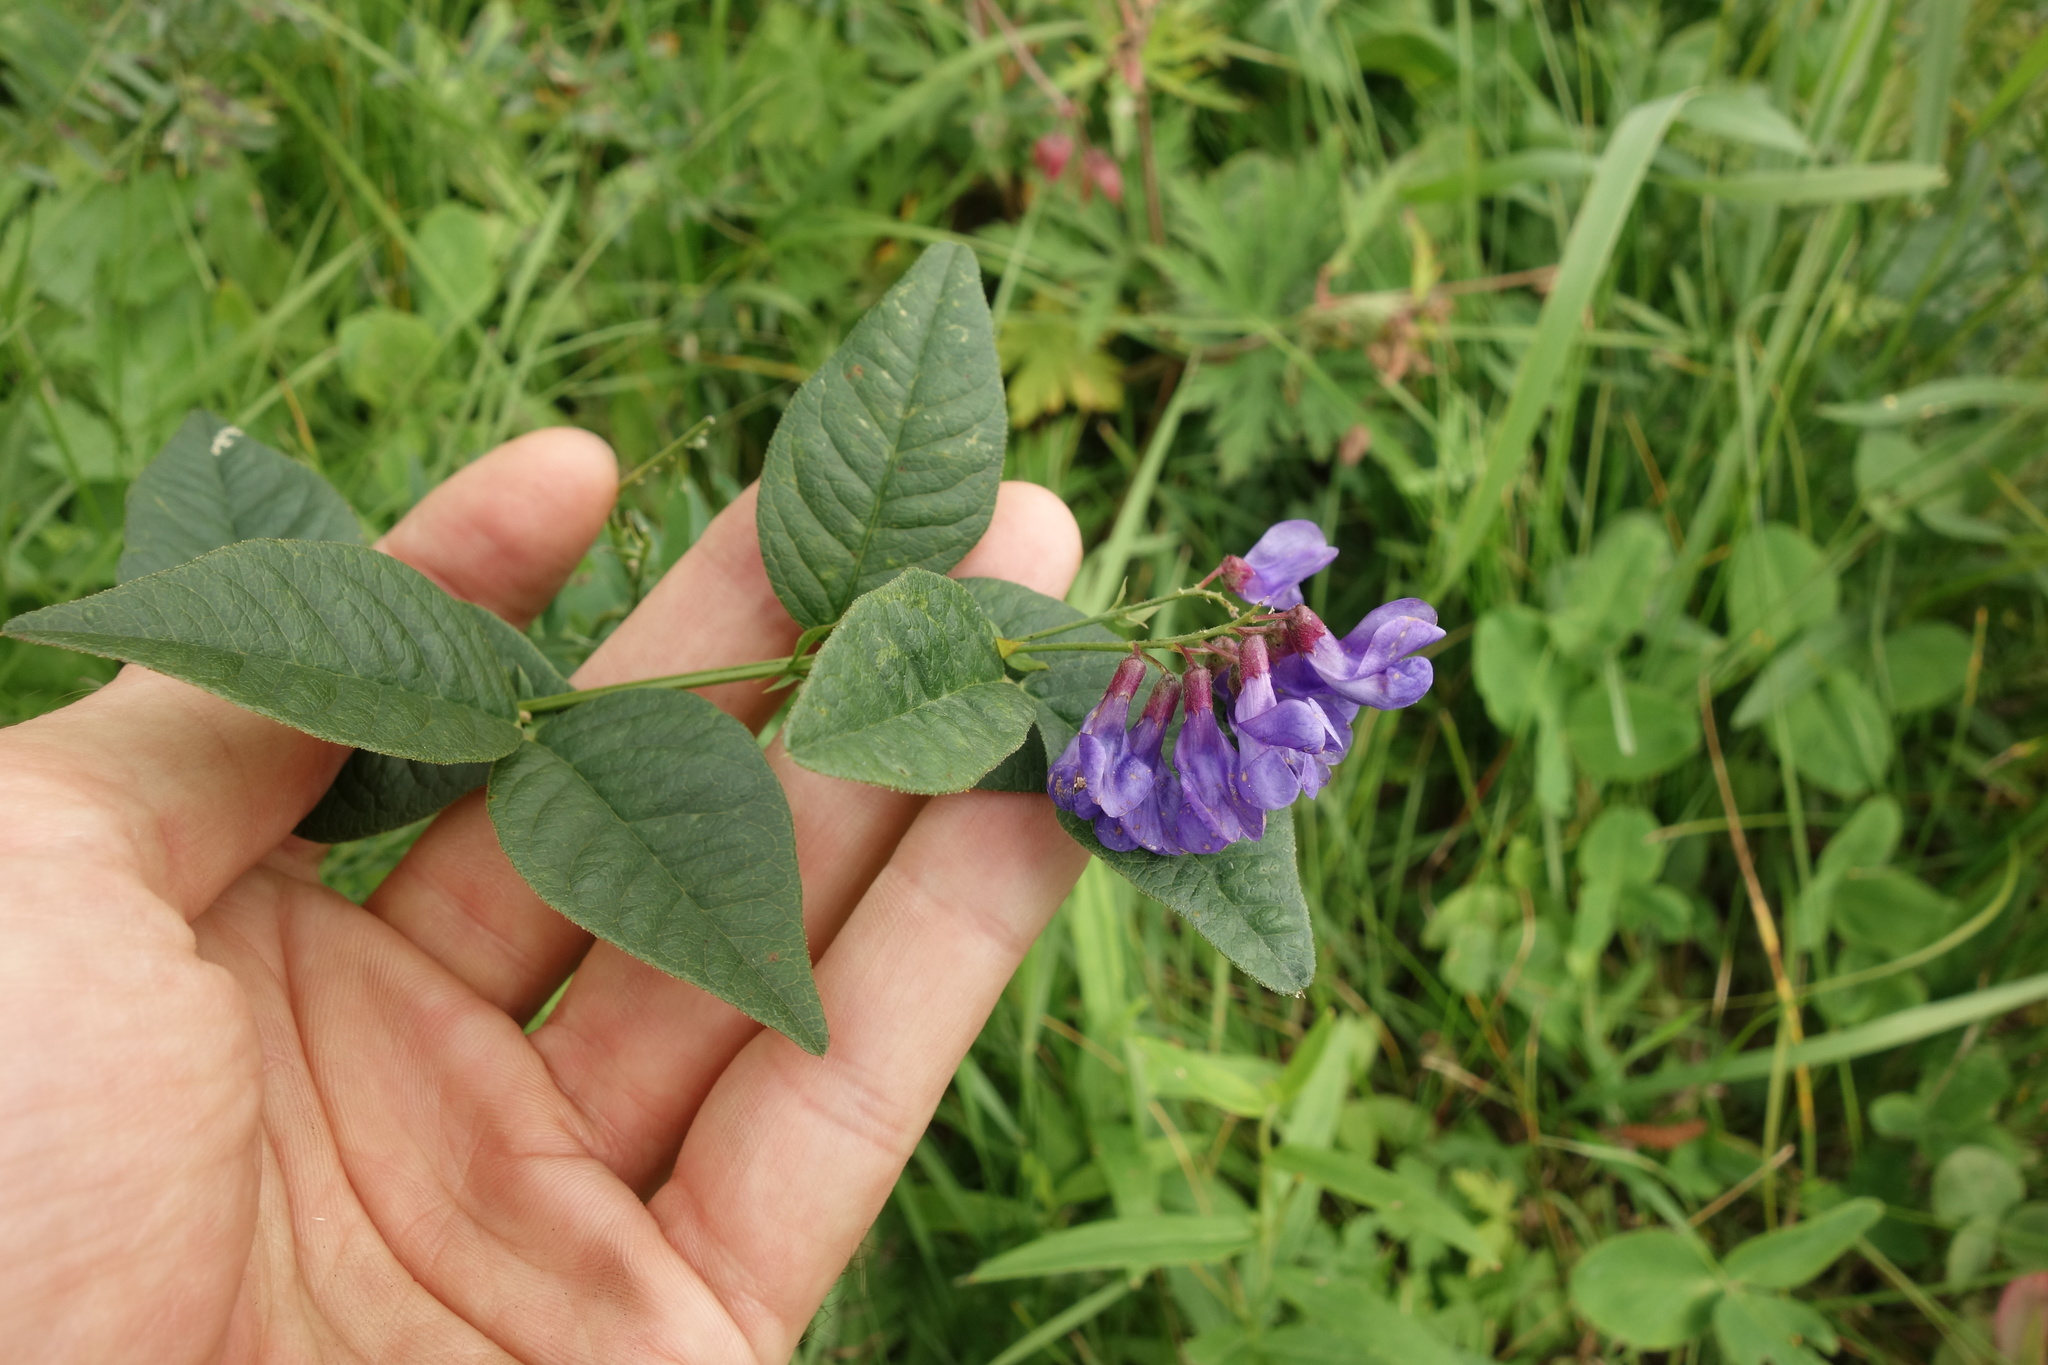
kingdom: Plantae
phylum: Tracheophyta
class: Magnoliopsida
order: Fabales
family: Fabaceae
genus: Vicia
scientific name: Vicia unijuga
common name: Two-leaf vetch
